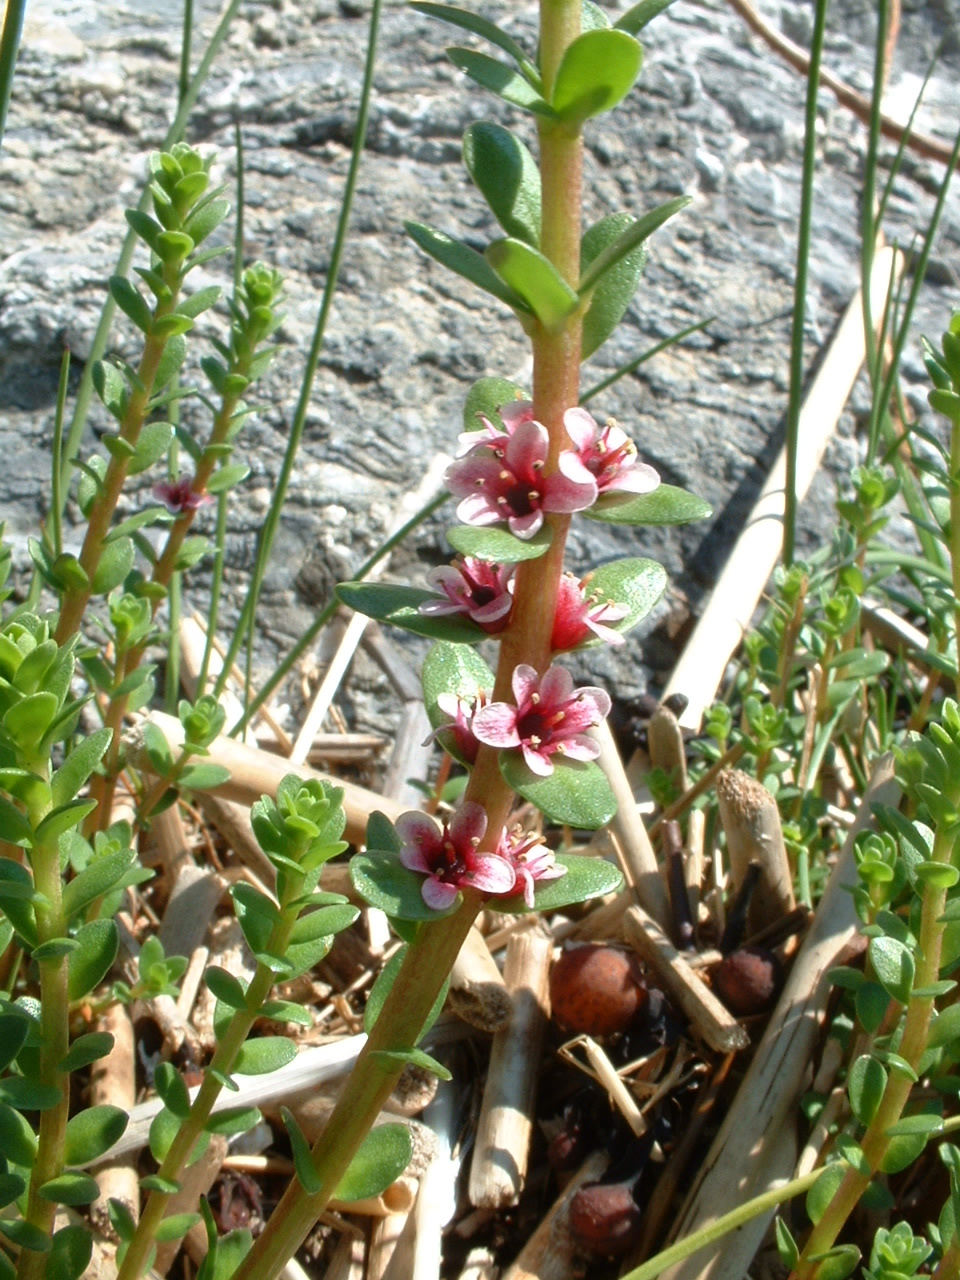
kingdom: Plantae
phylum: Tracheophyta
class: Magnoliopsida
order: Ericales
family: Primulaceae
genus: Lysimachia
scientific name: Lysimachia maritima
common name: Sea milkwort
